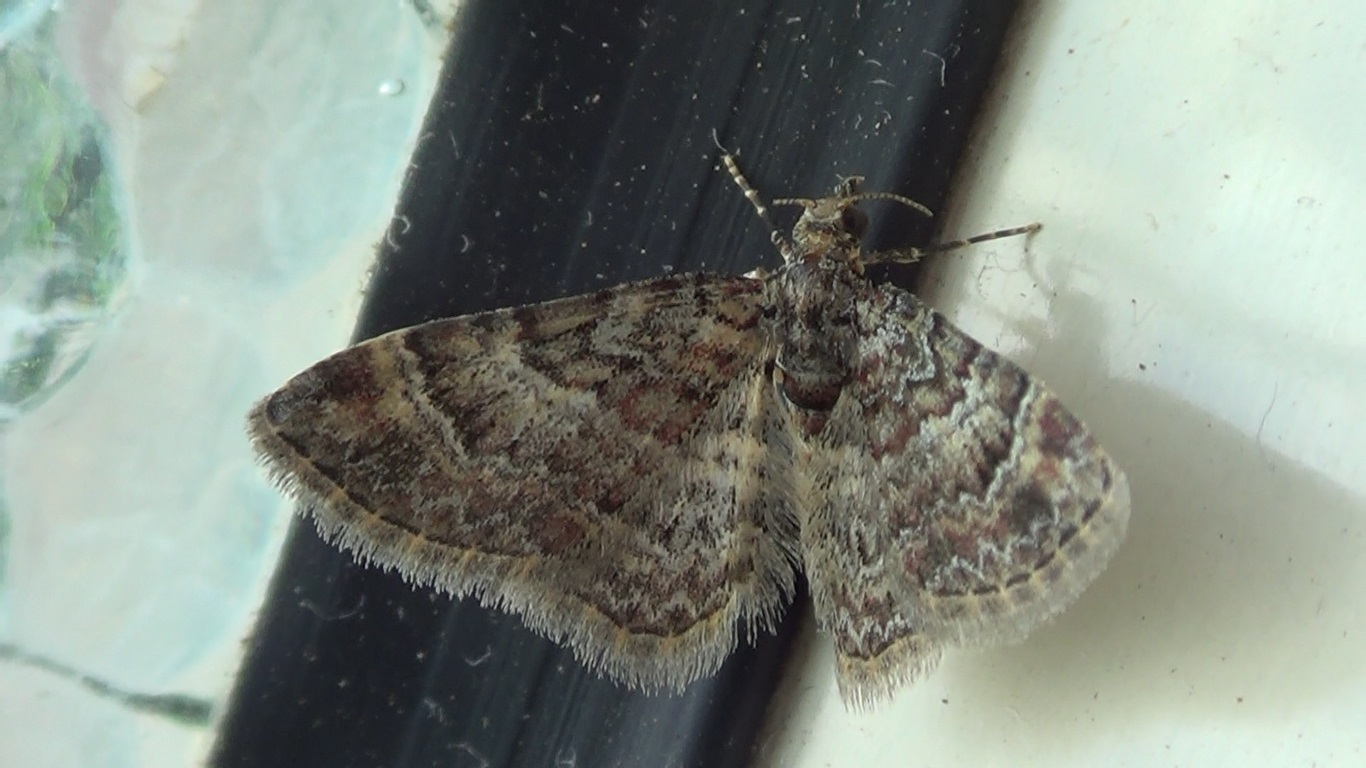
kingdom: Animalia
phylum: Arthropoda
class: Insecta
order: Lepidoptera
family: Geometridae
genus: Gymnoscelis
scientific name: Gymnoscelis rufifasciata
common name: Double-striped pug
